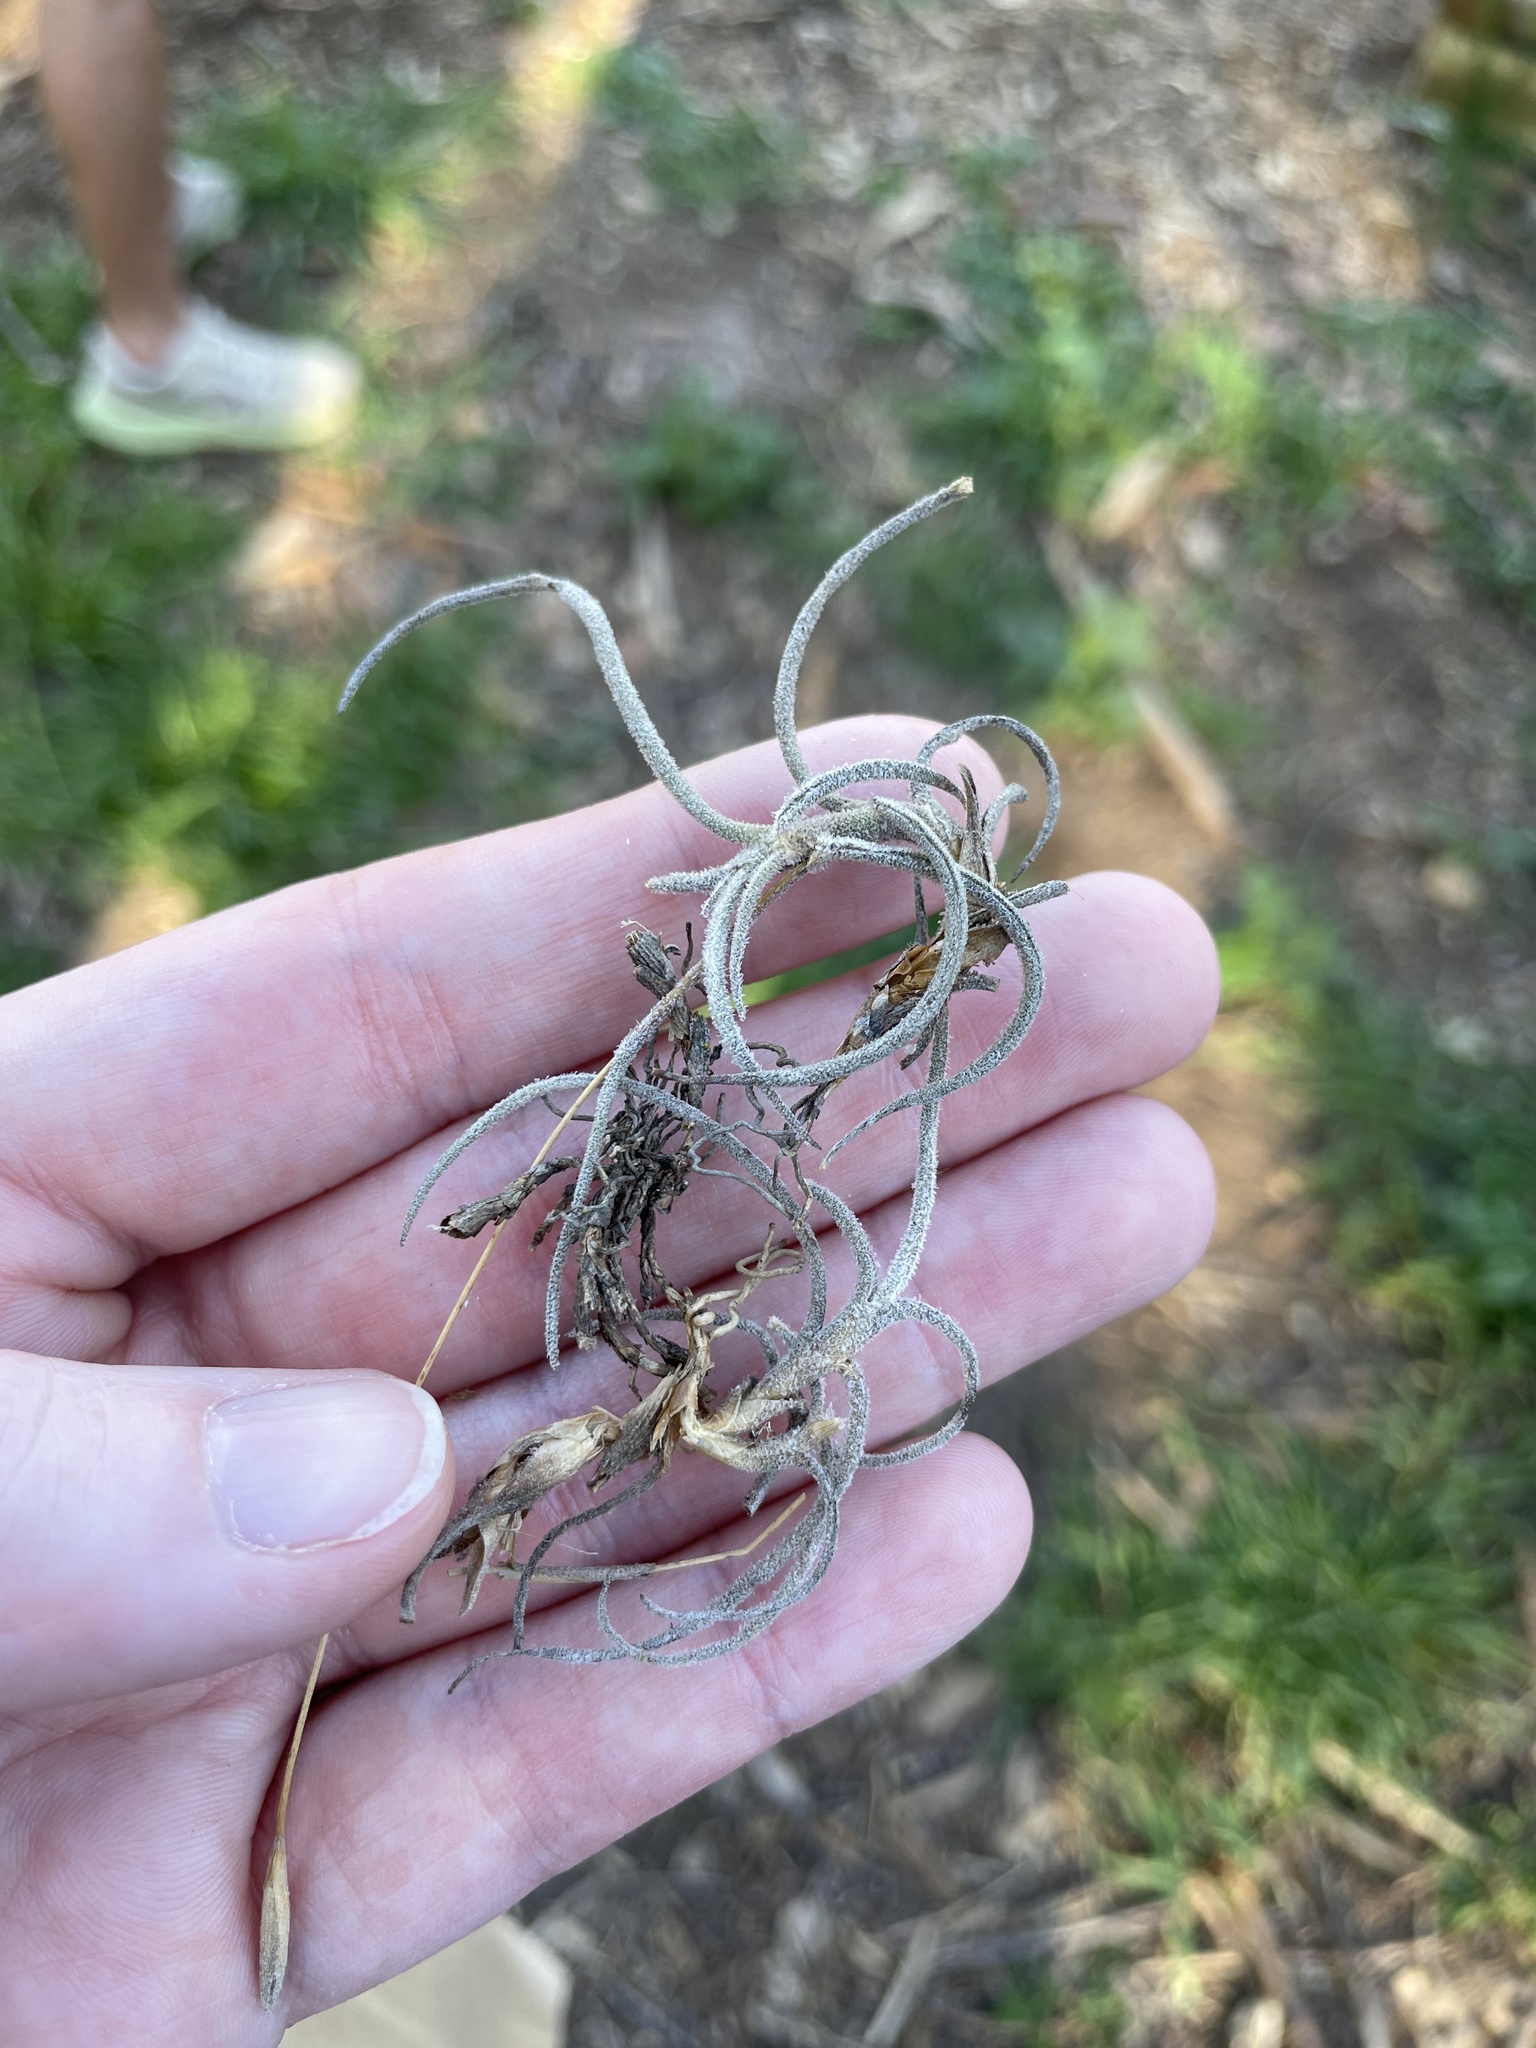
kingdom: Plantae
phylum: Tracheophyta
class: Liliopsida
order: Poales
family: Bromeliaceae
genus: Tillandsia
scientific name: Tillandsia recurvata
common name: Small ballmoss
